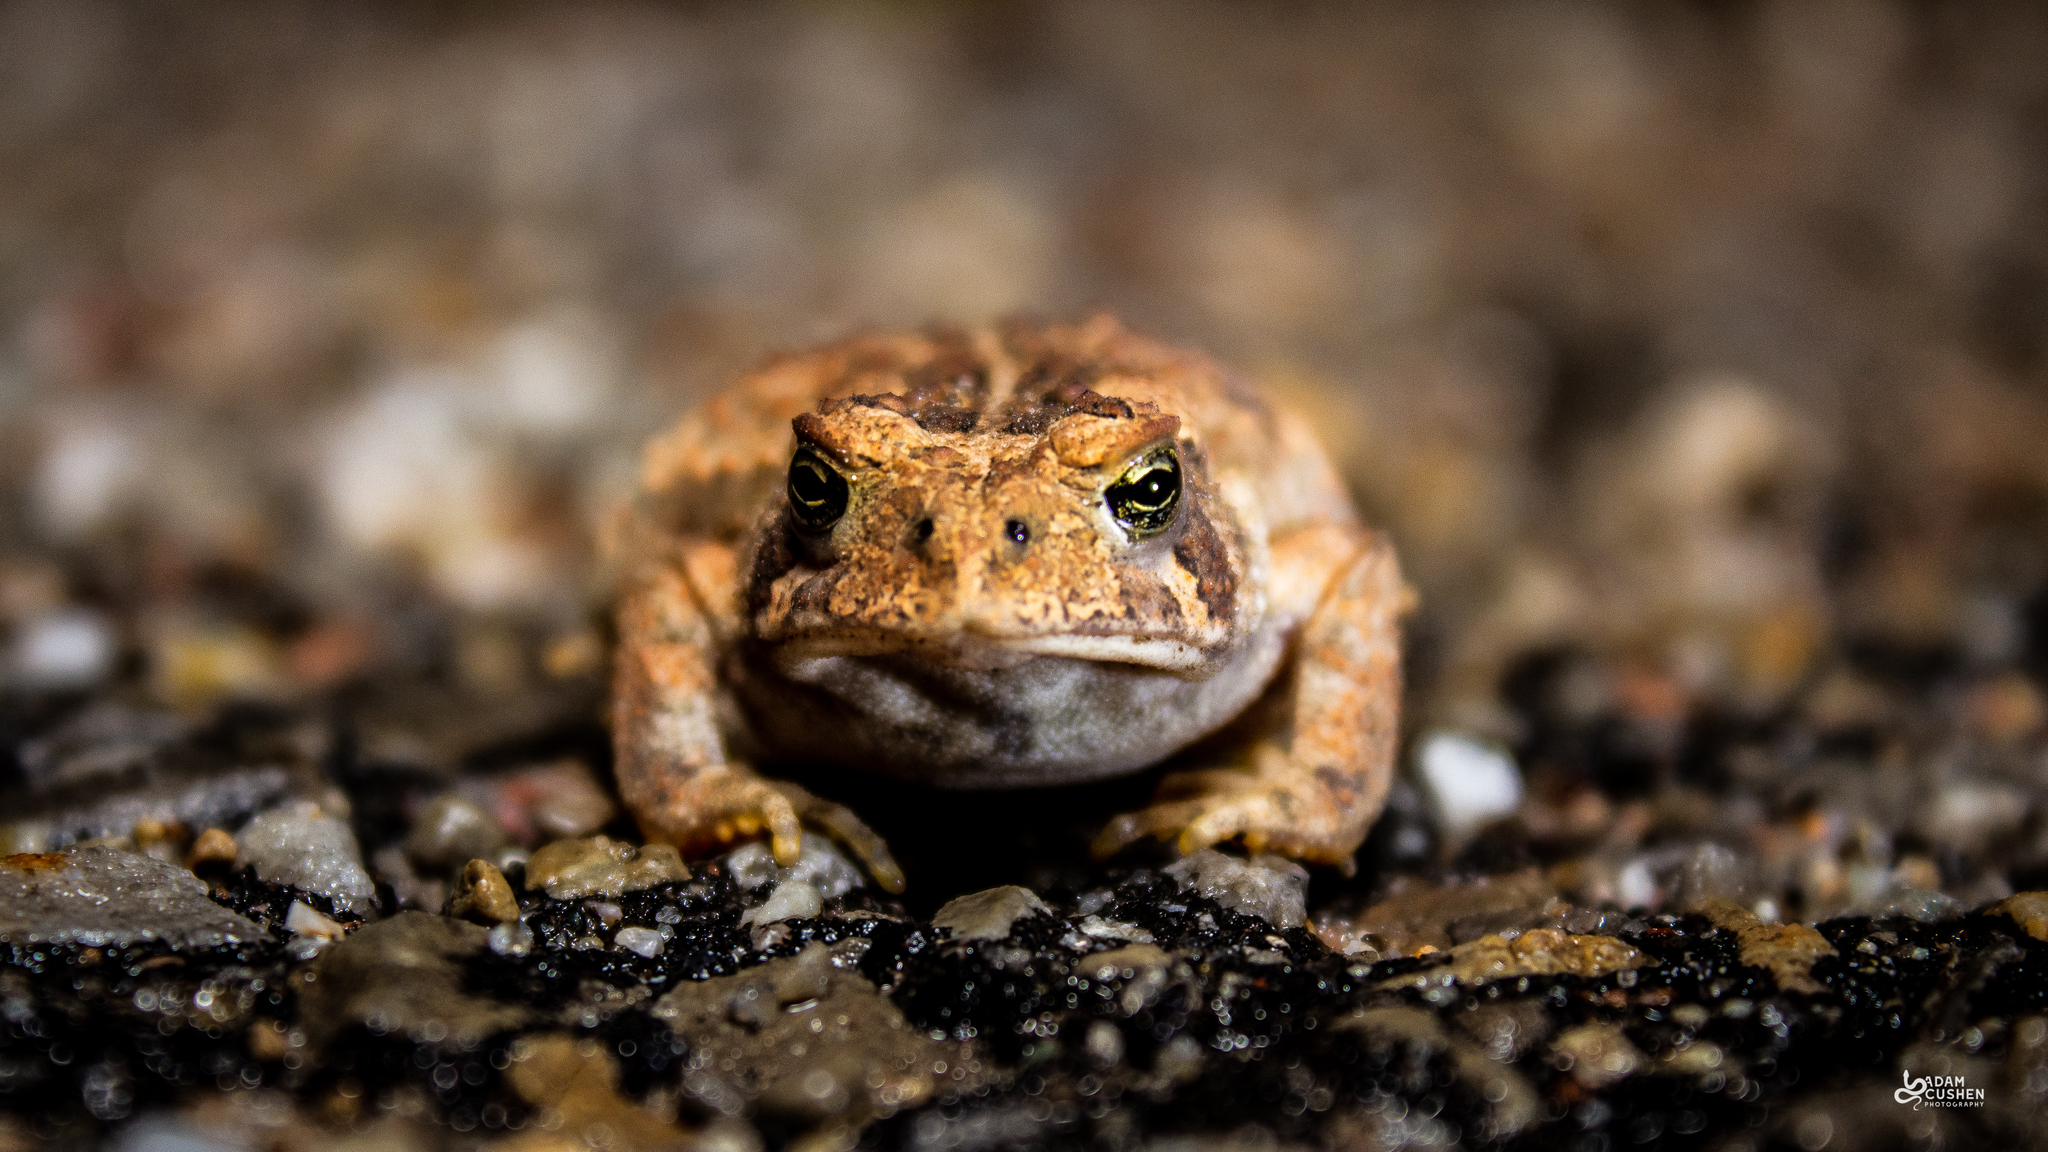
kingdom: Animalia
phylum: Chordata
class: Amphibia
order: Anura
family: Bufonidae
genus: Anaxyrus
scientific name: Anaxyrus americanus
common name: American toad
